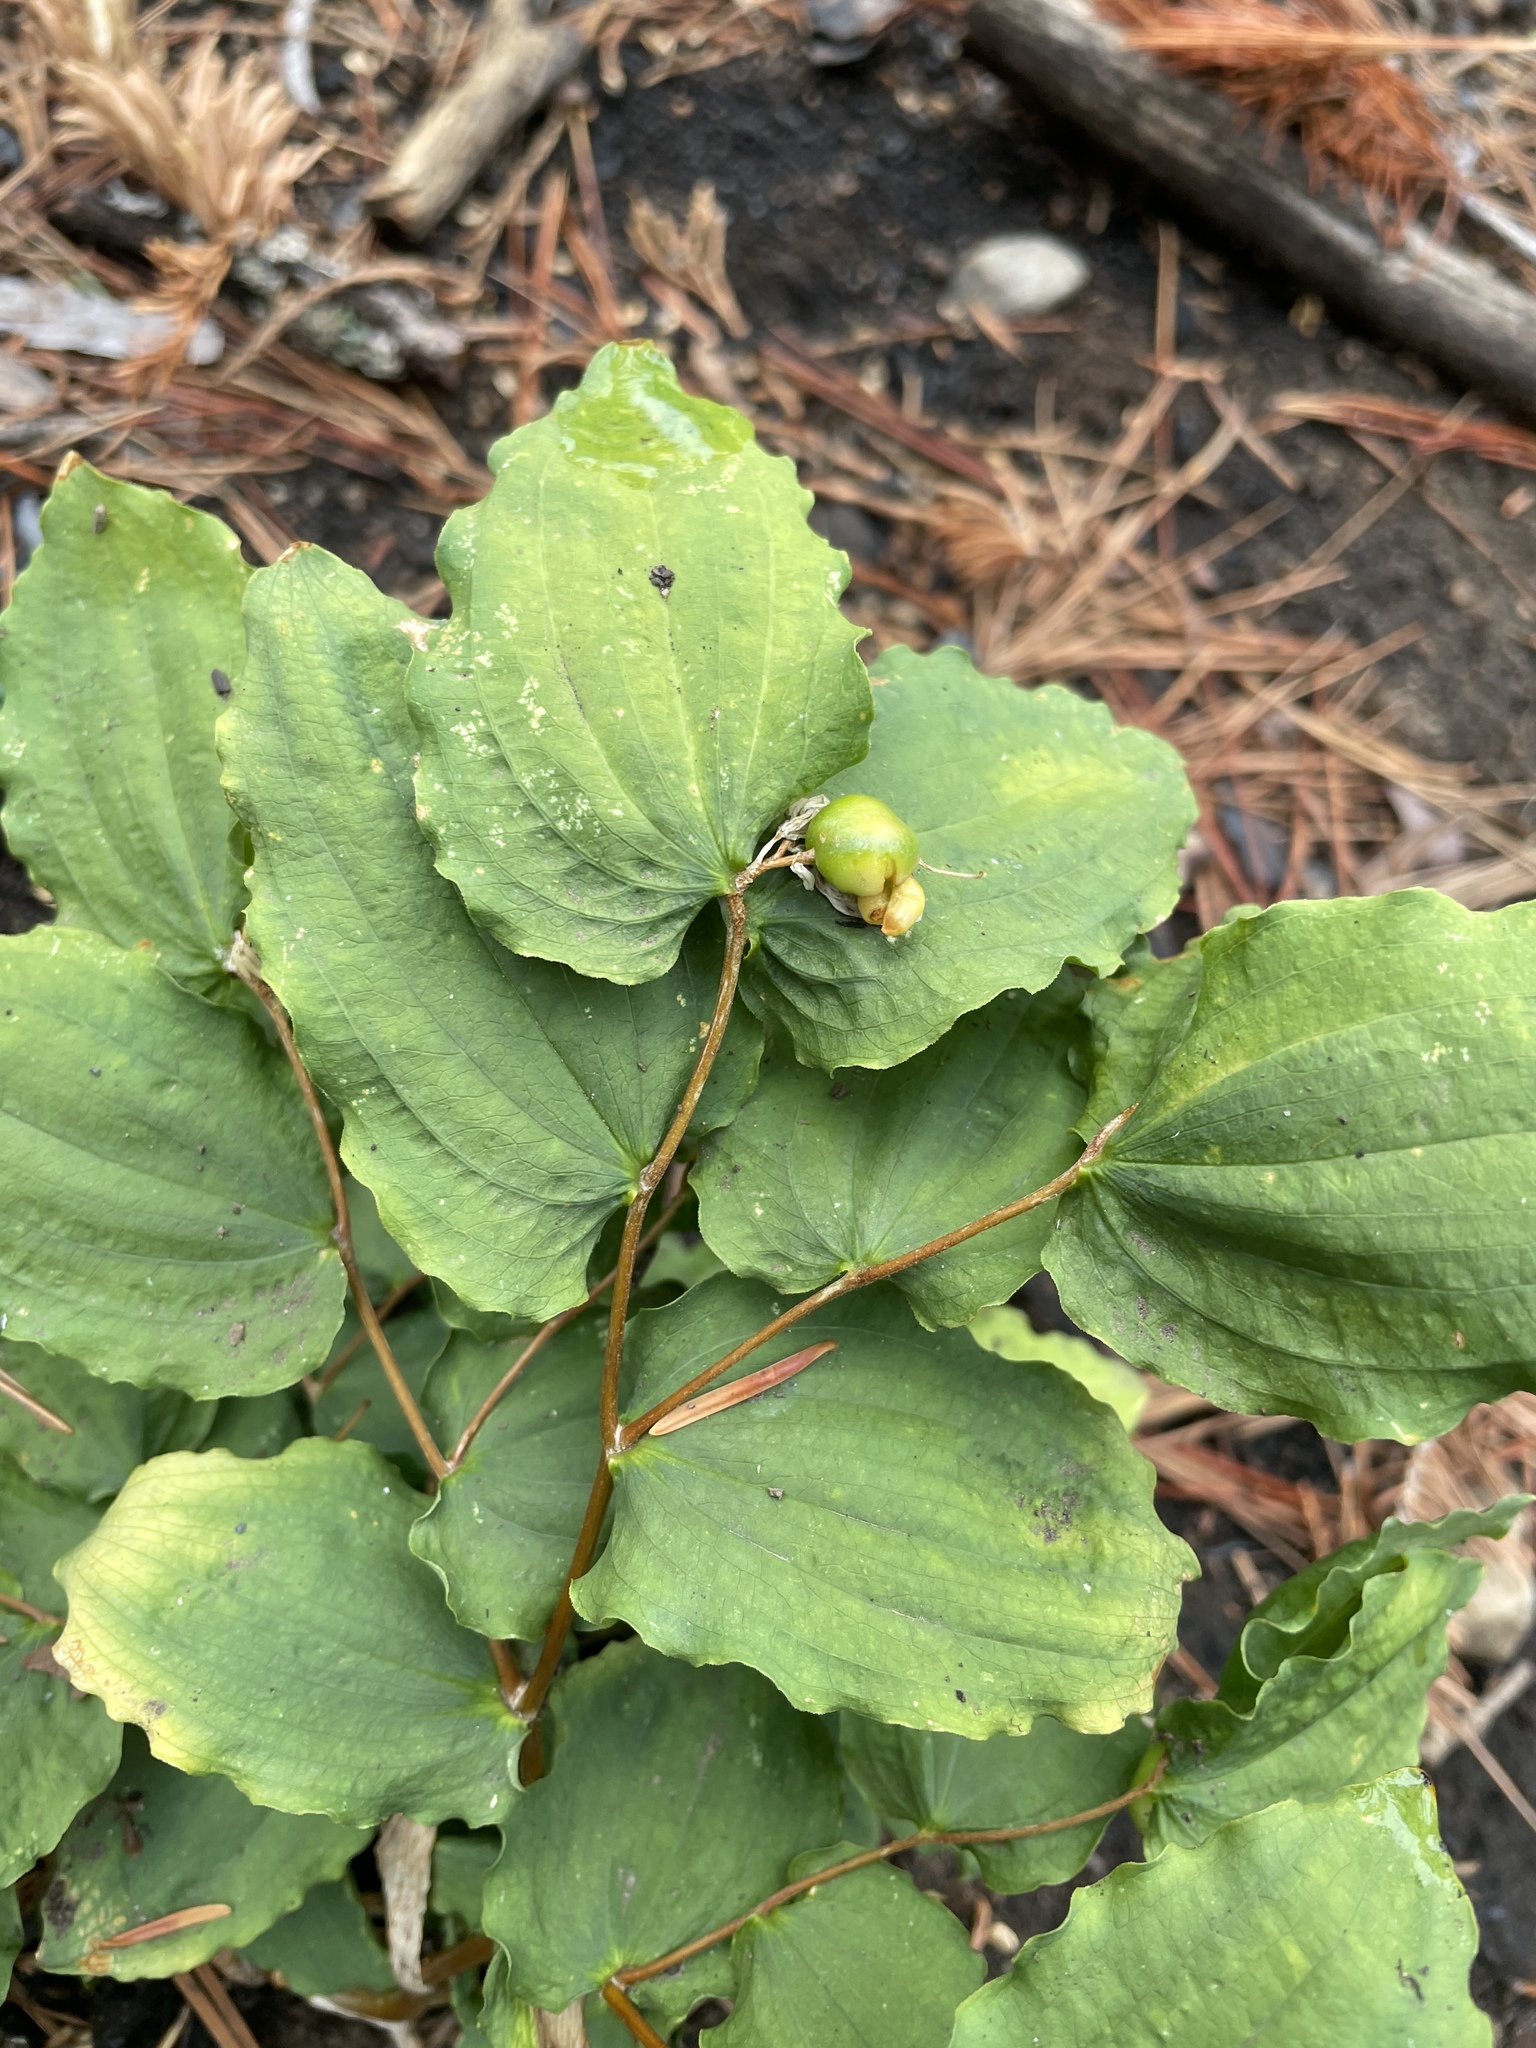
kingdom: Plantae
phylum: Tracheophyta
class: Liliopsida
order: Liliales
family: Liliaceae
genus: Prosartes
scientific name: Prosartes hookeri
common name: Fairy-bells
